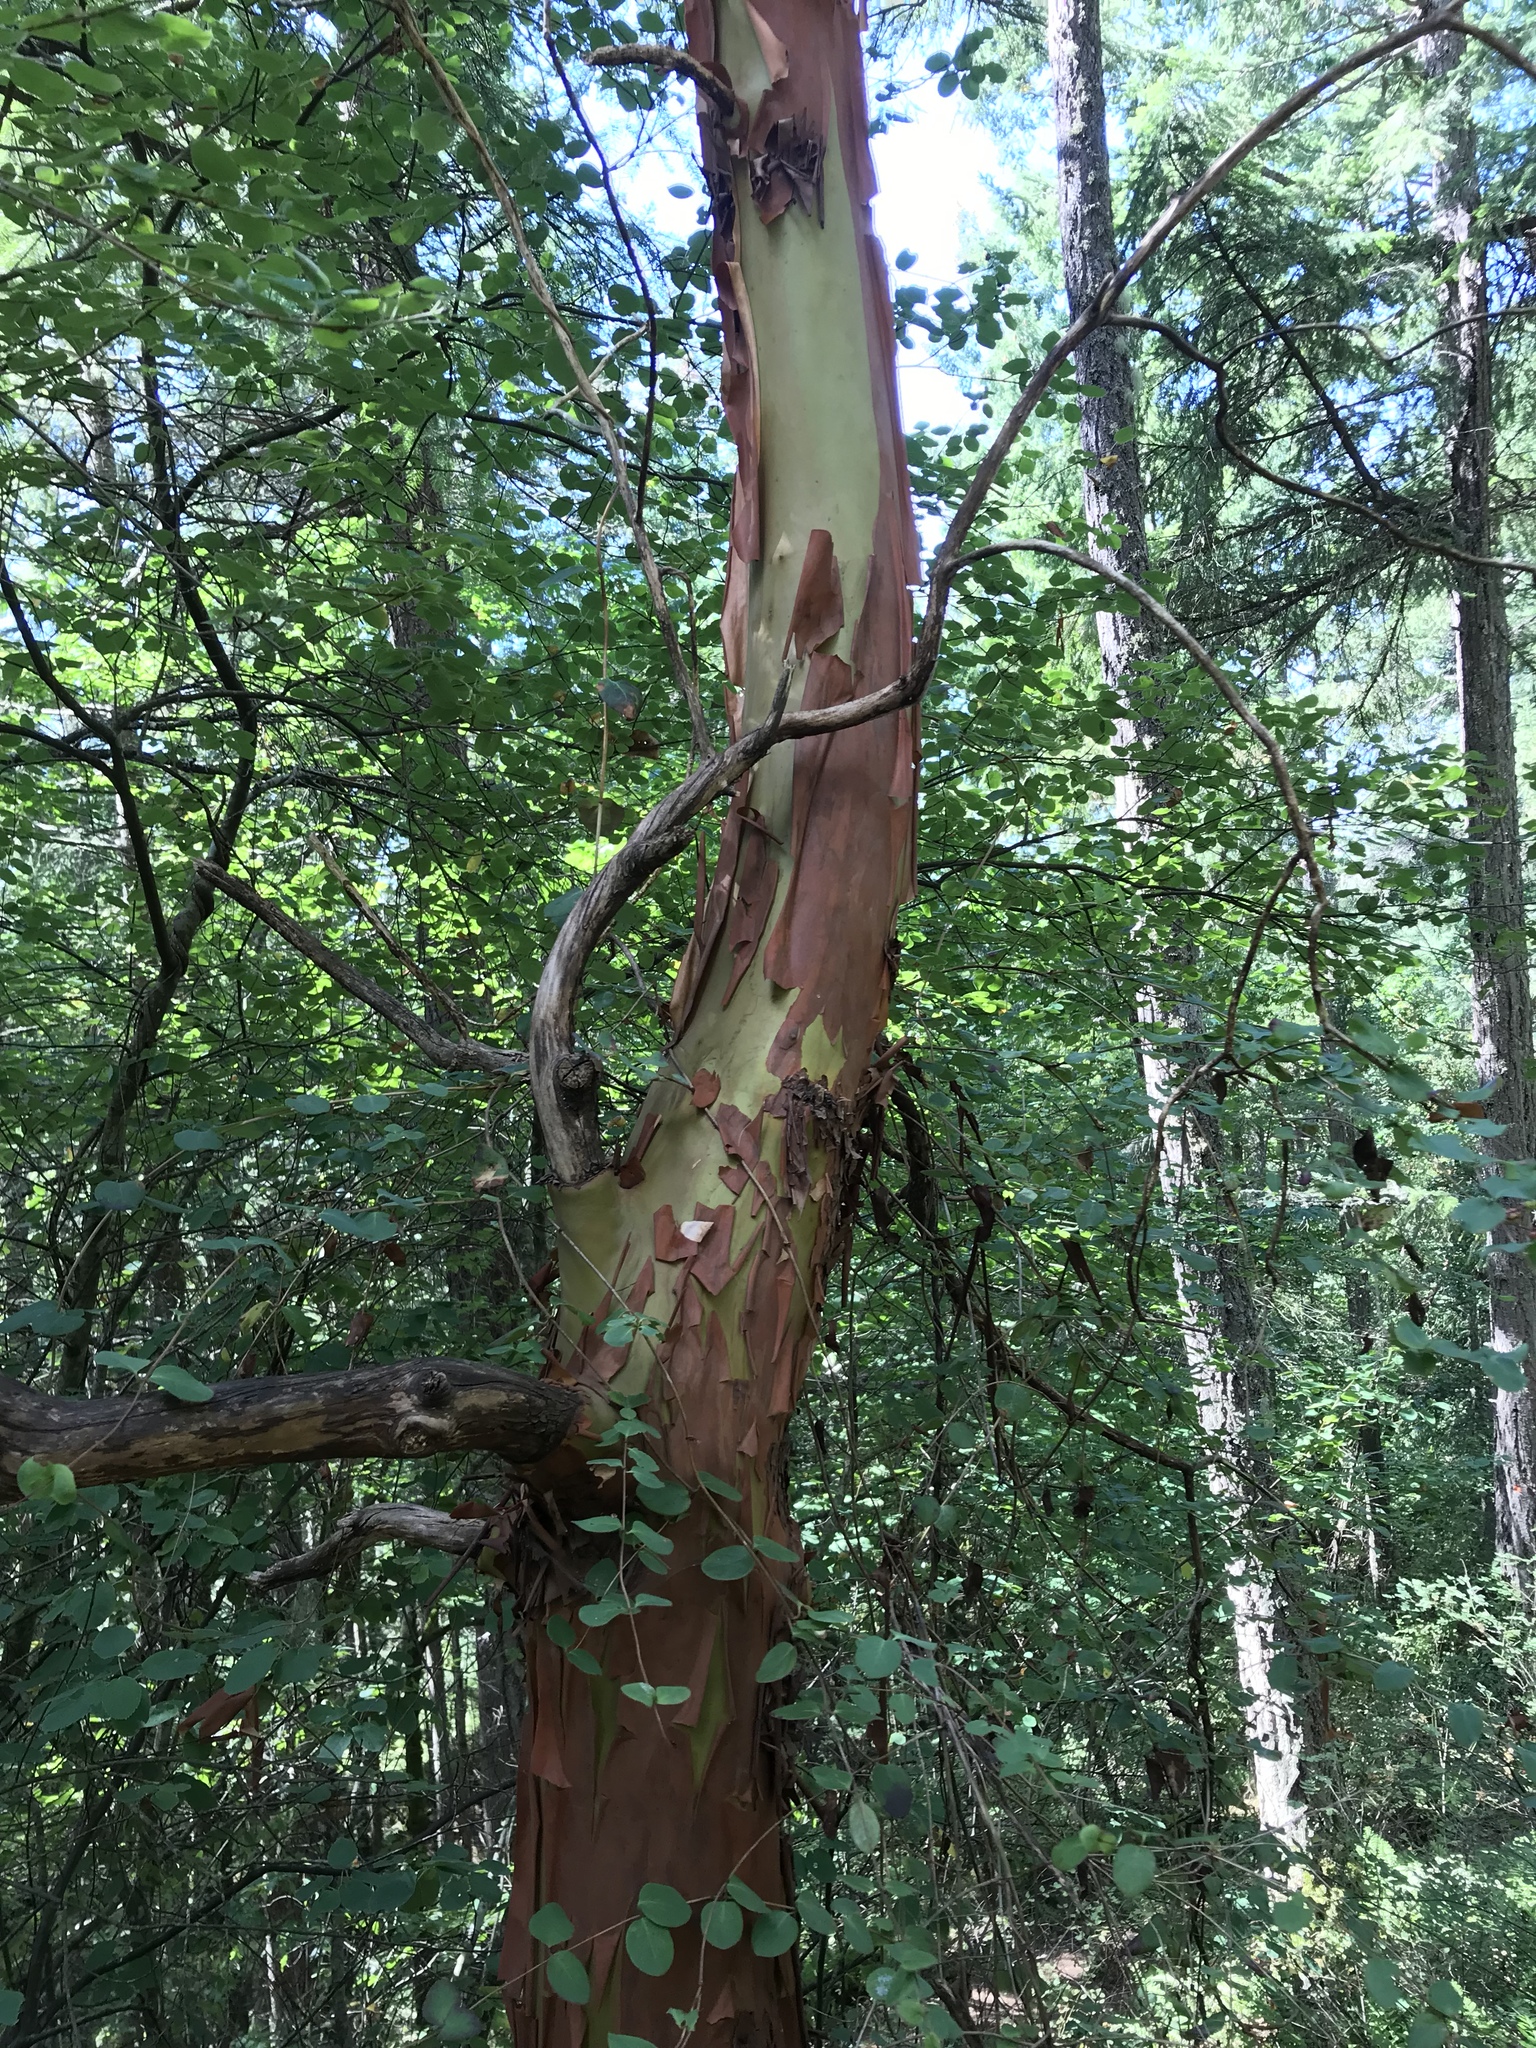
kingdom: Plantae
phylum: Tracheophyta
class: Magnoliopsida
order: Ericales
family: Ericaceae
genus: Arbutus
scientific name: Arbutus menziesii
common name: Pacific madrone
